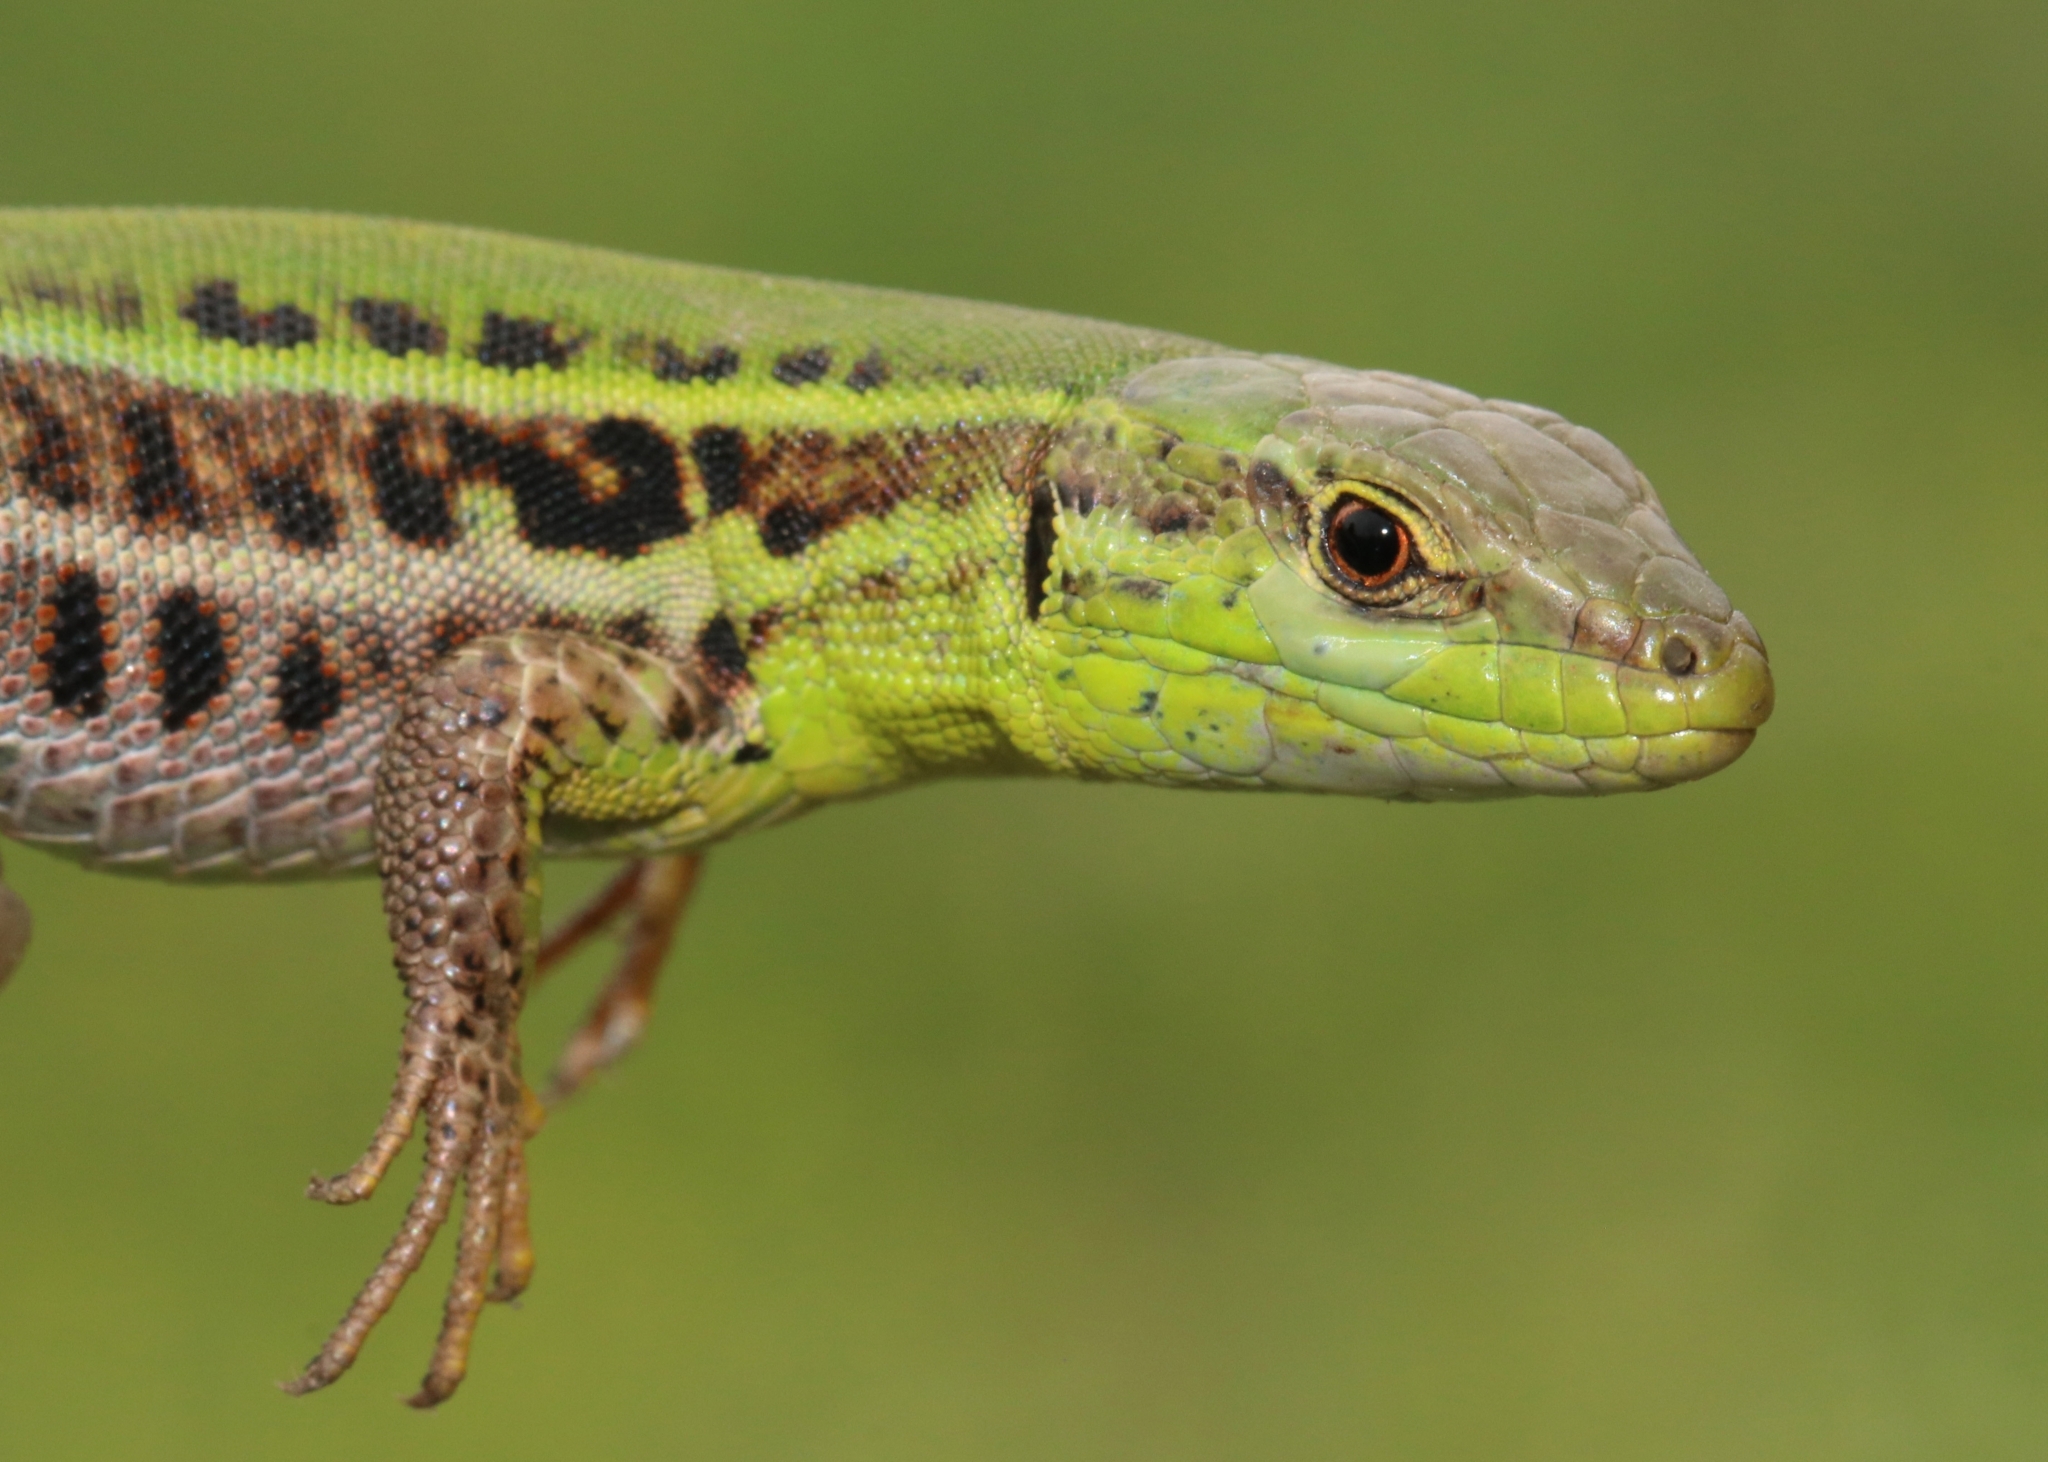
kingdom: Animalia
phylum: Chordata
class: Squamata
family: Lacertidae
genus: Podarcis
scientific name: Podarcis ionicus
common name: Ionian wall lizard
